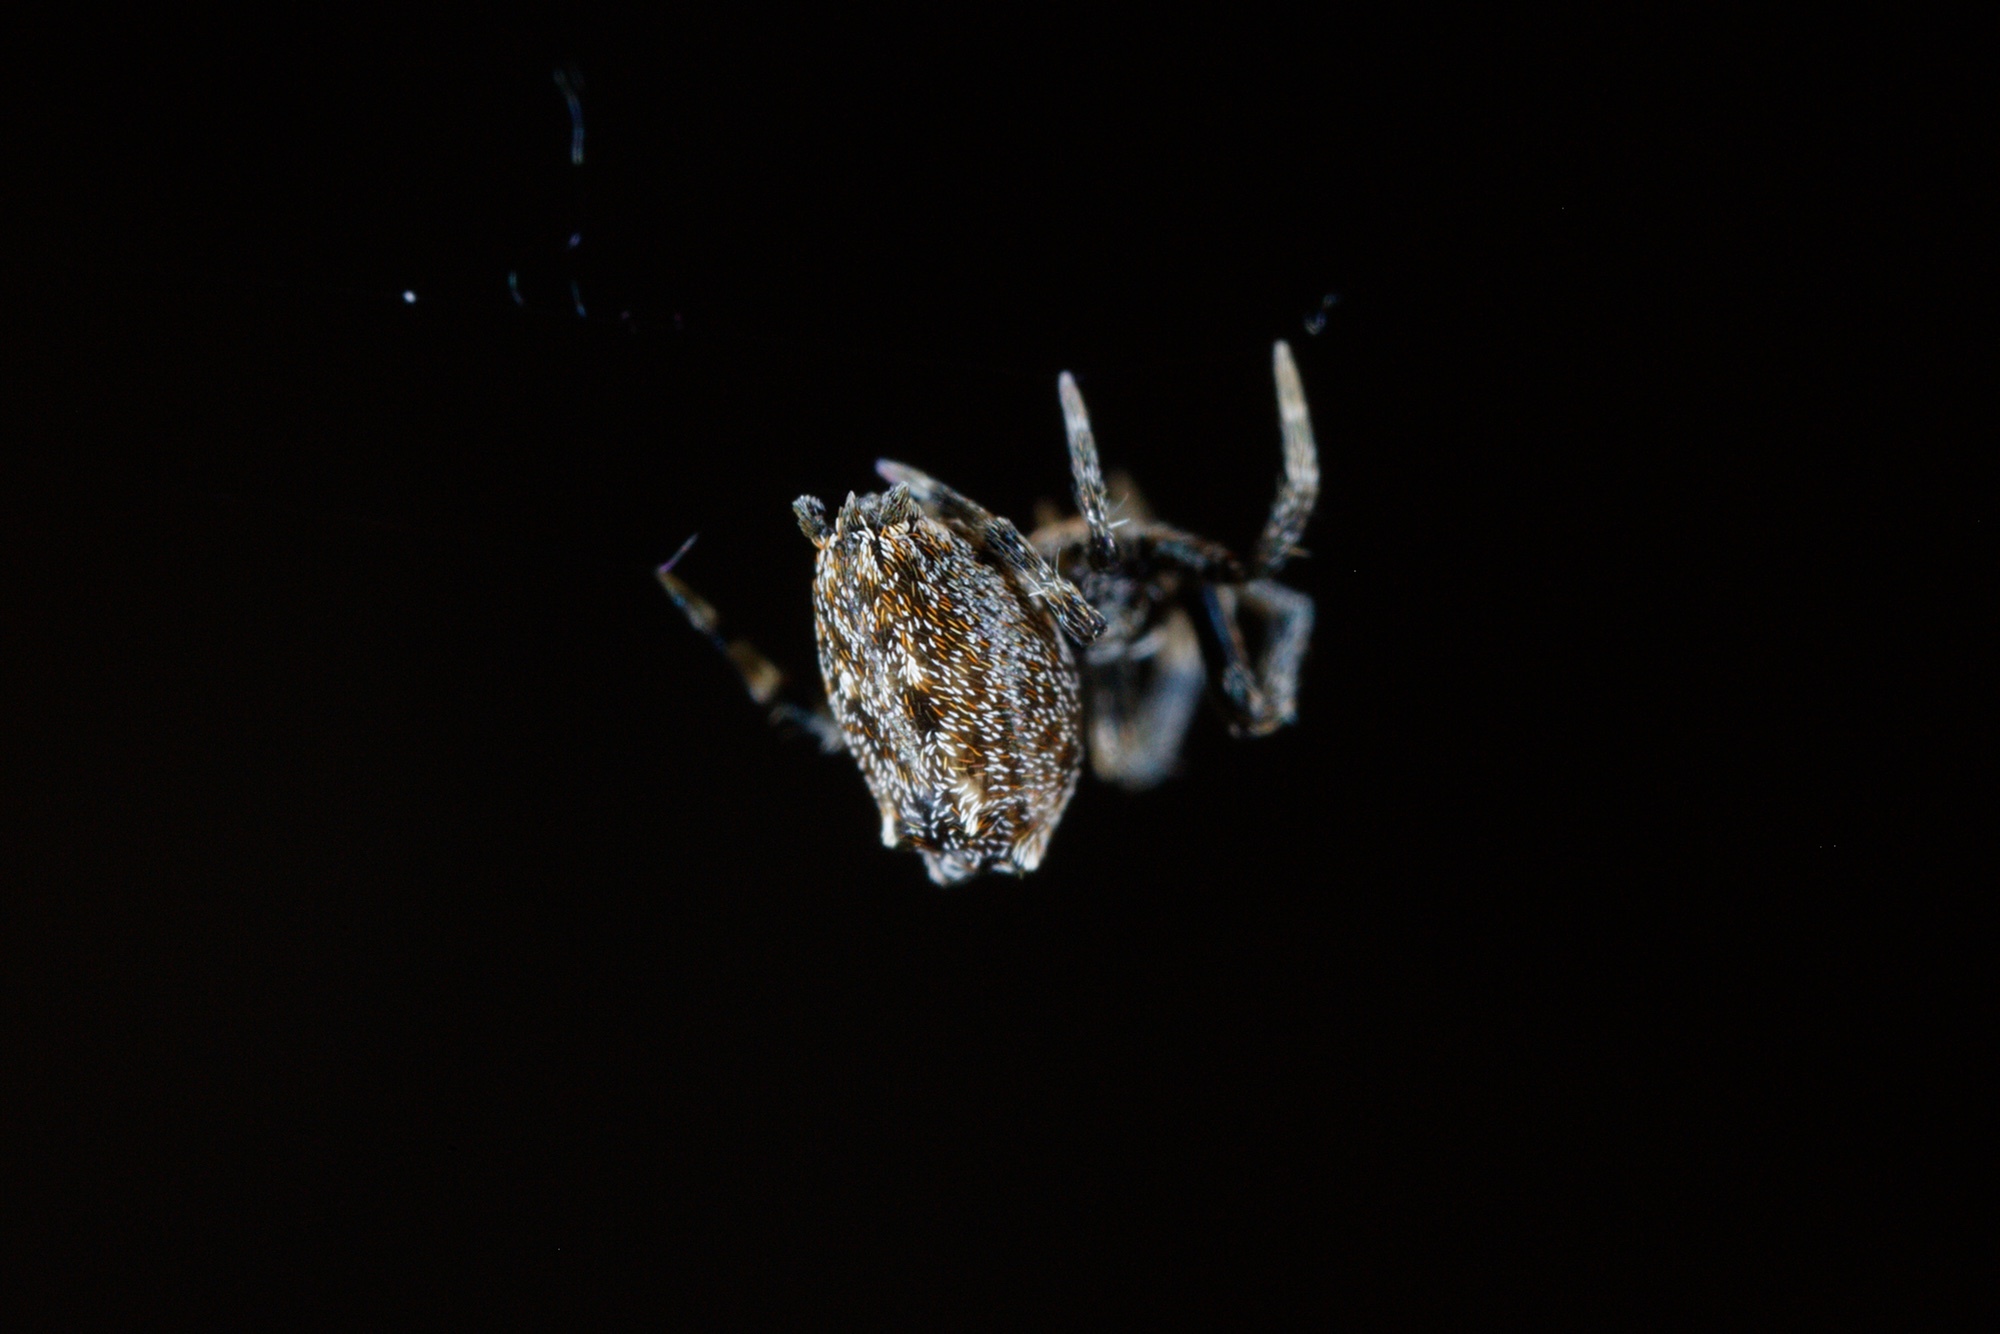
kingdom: Animalia
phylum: Arthropoda
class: Arachnida
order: Araneae
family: Uloboridae
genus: Philoponella
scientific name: Philoponella congregabilis
